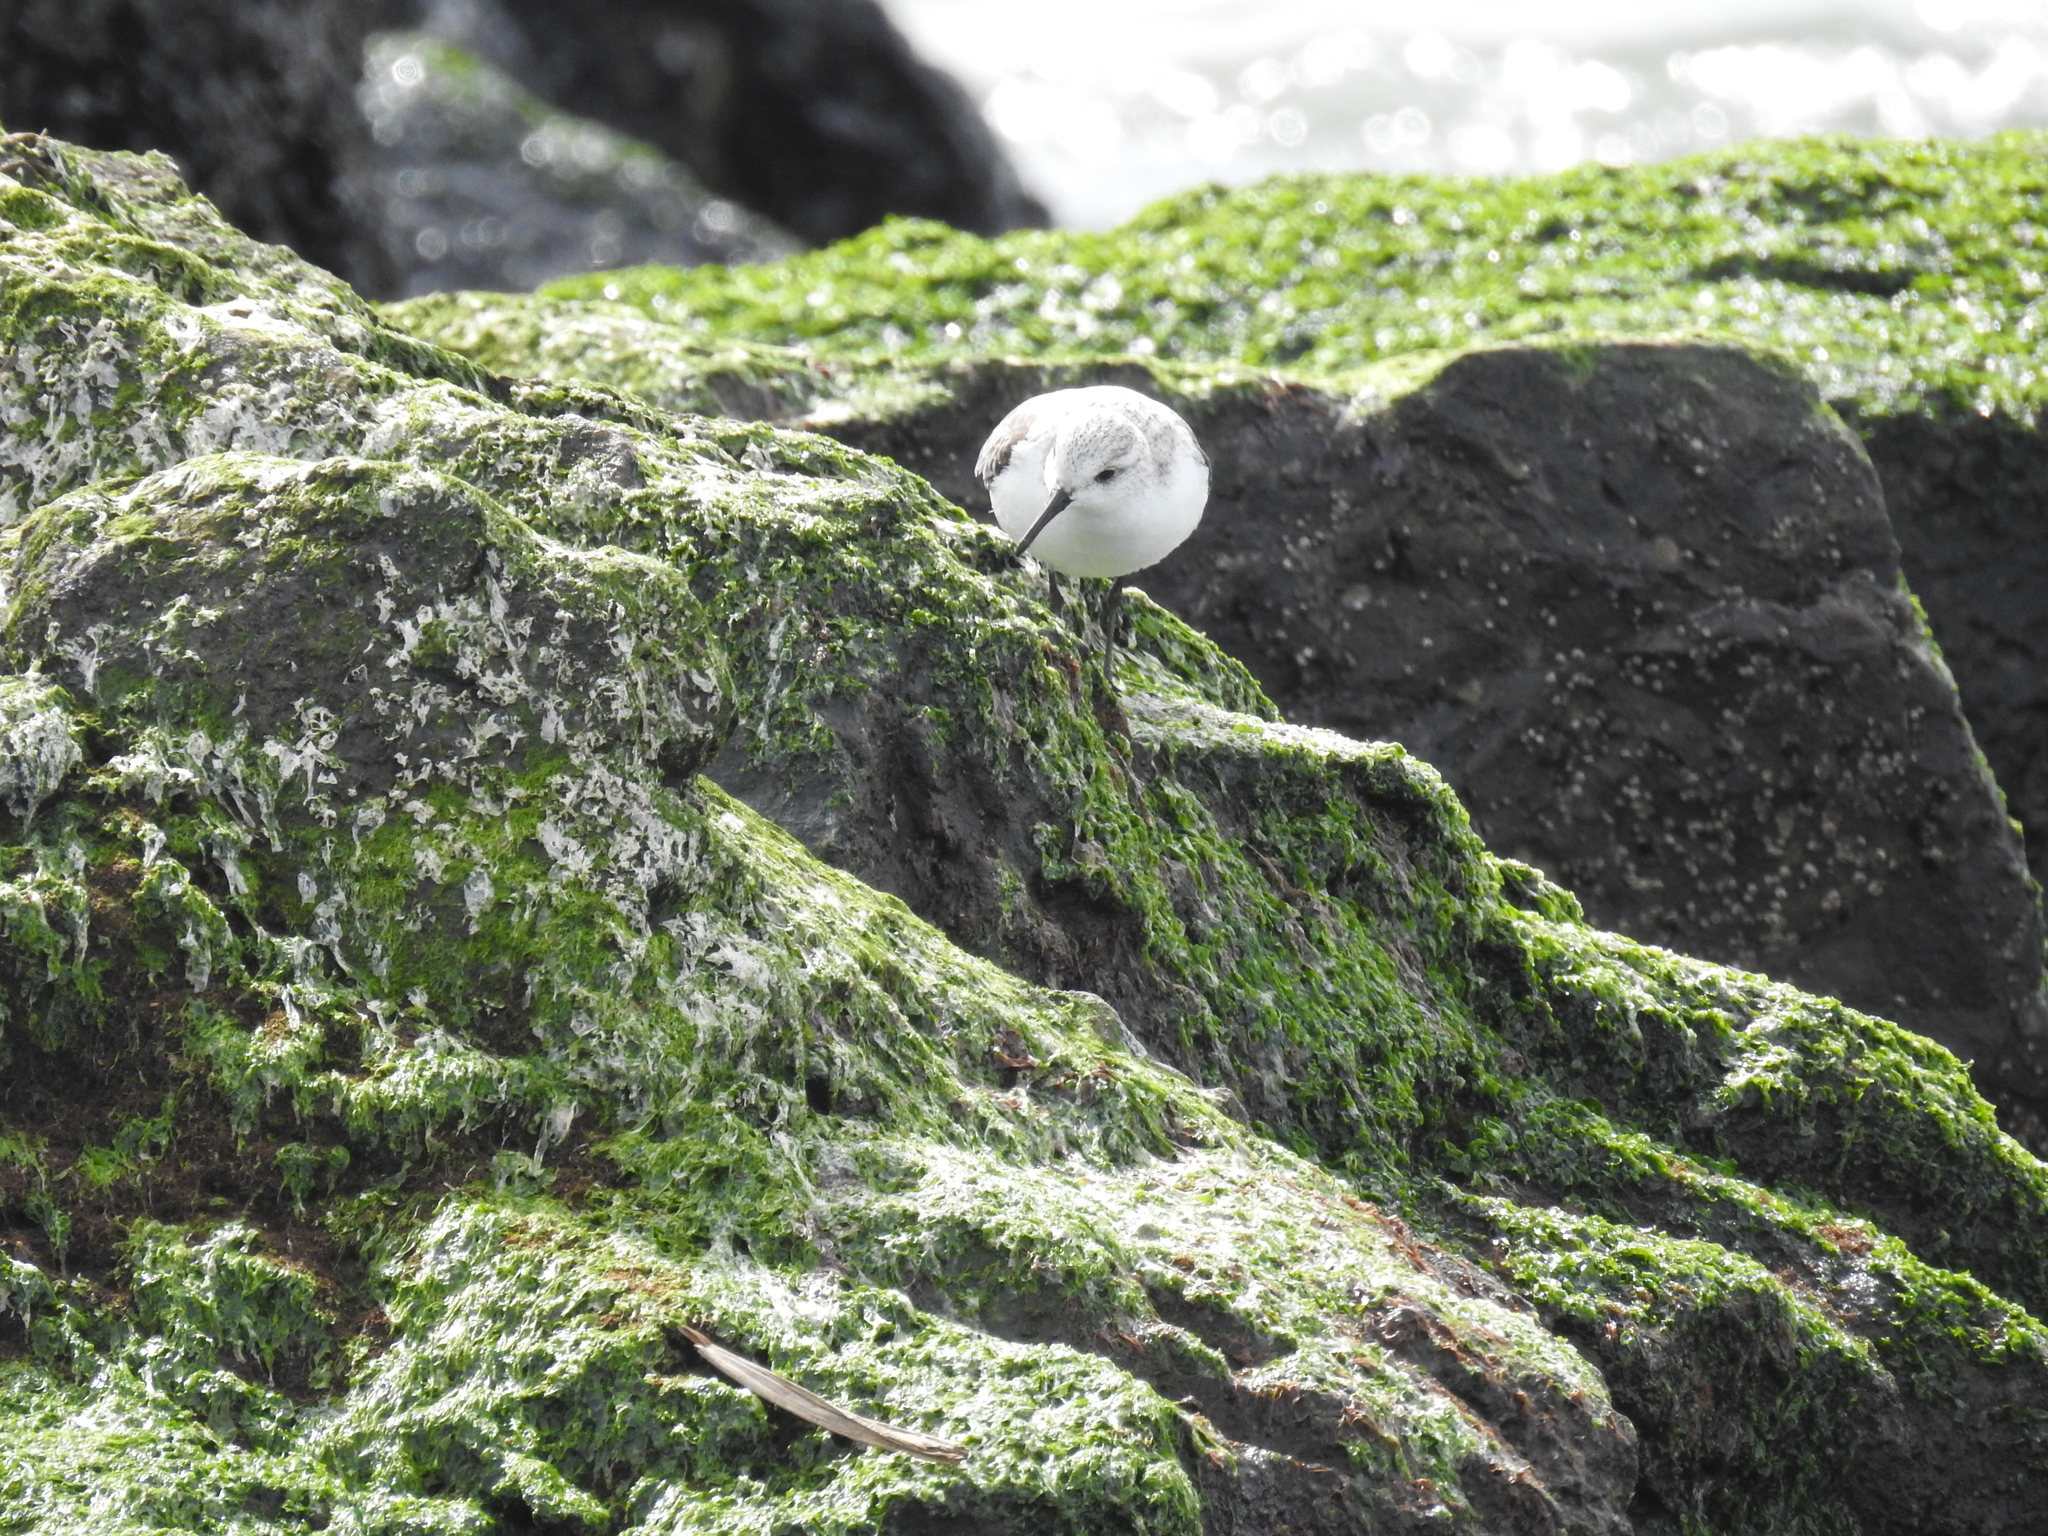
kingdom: Animalia
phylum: Chordata
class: Aves
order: Charadriiformes
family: Scolopacidae
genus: Calidris
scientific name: Calidris alba
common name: Sanderling
